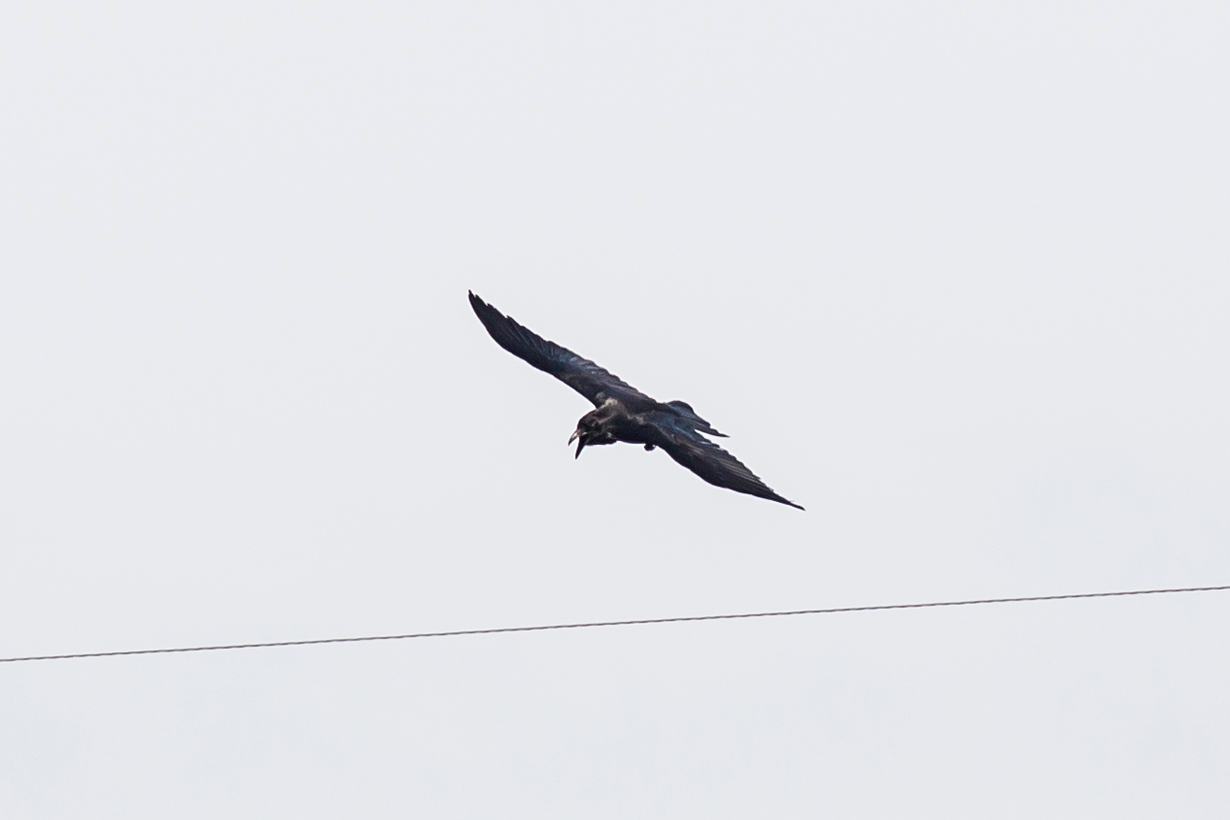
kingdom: Animalia
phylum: Chordata
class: Aves
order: Passeriformes
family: Corvidae
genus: Corvus
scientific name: Corvus corax
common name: Common raven
